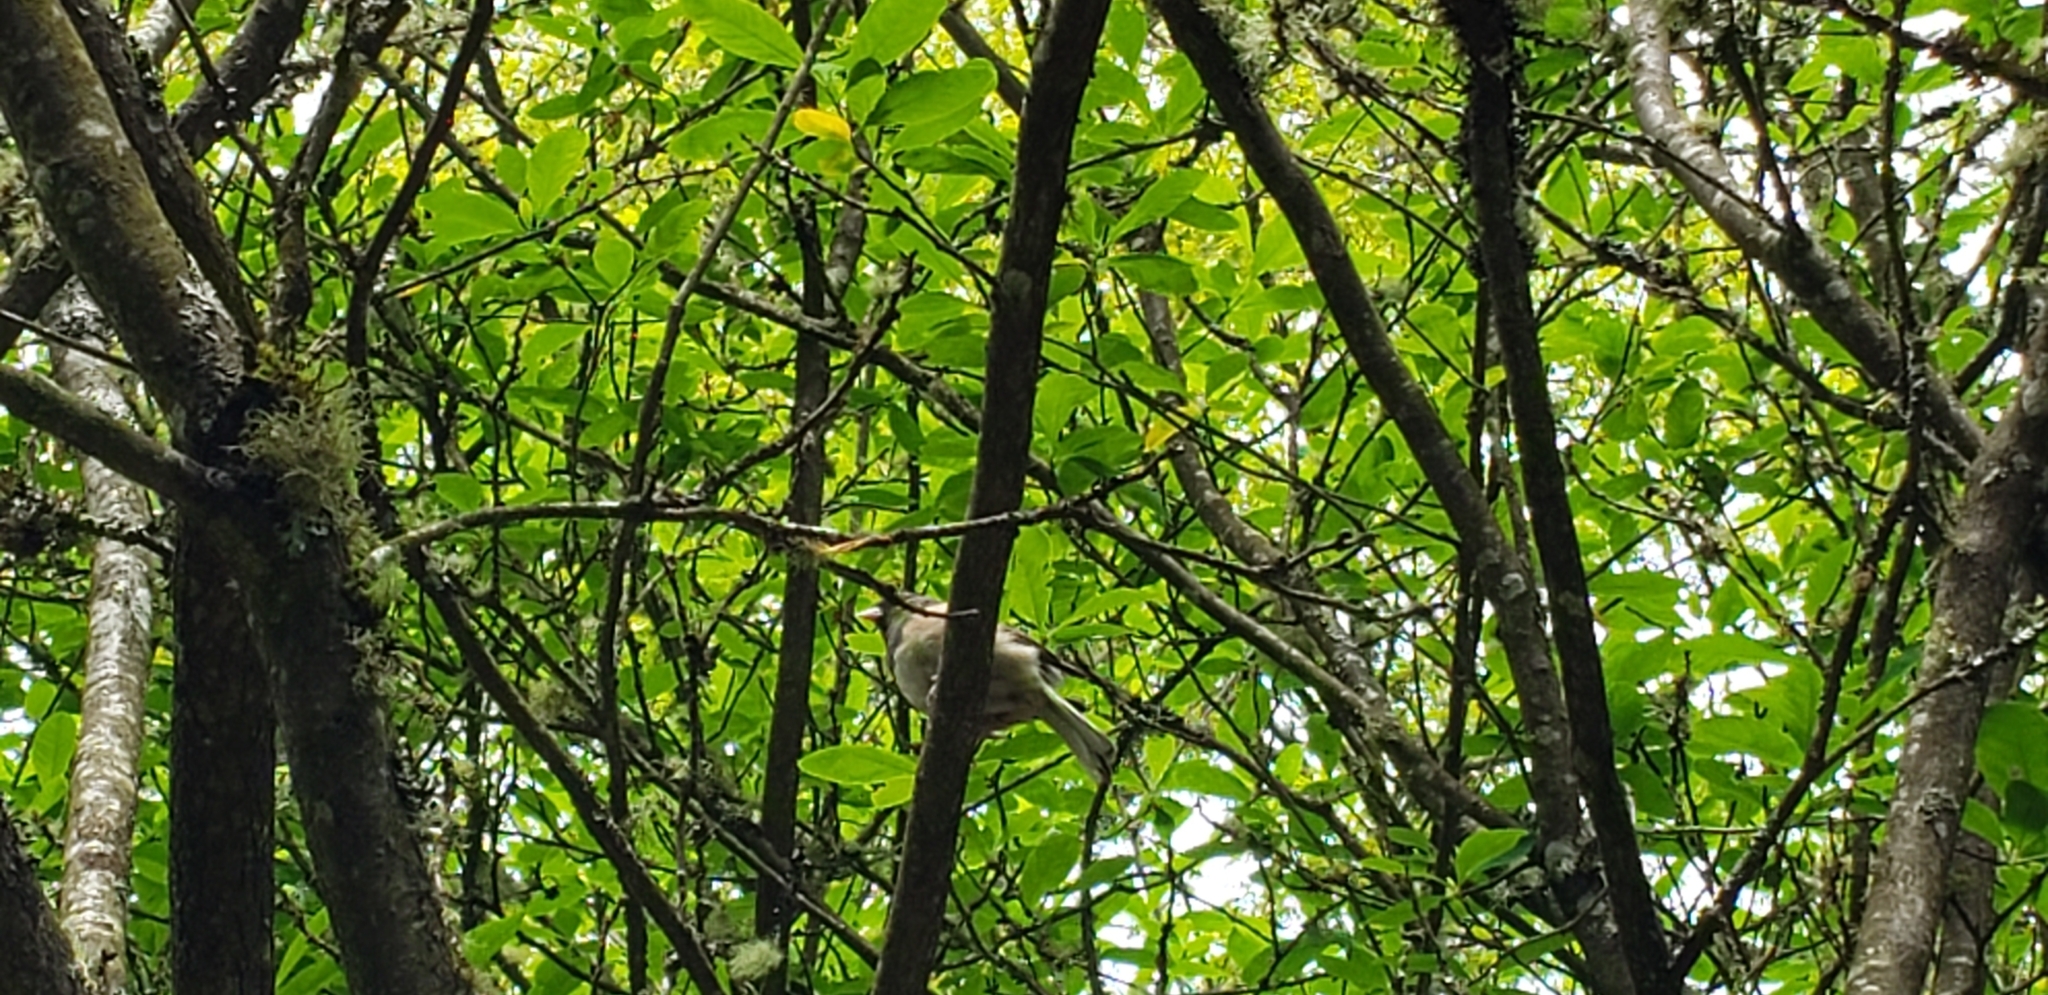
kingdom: Animalia
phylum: Chordata
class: Aves
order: Passeriformes
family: Passerellidae
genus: Junco
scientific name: Junco hyemalis
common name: Dark-eyed junco
